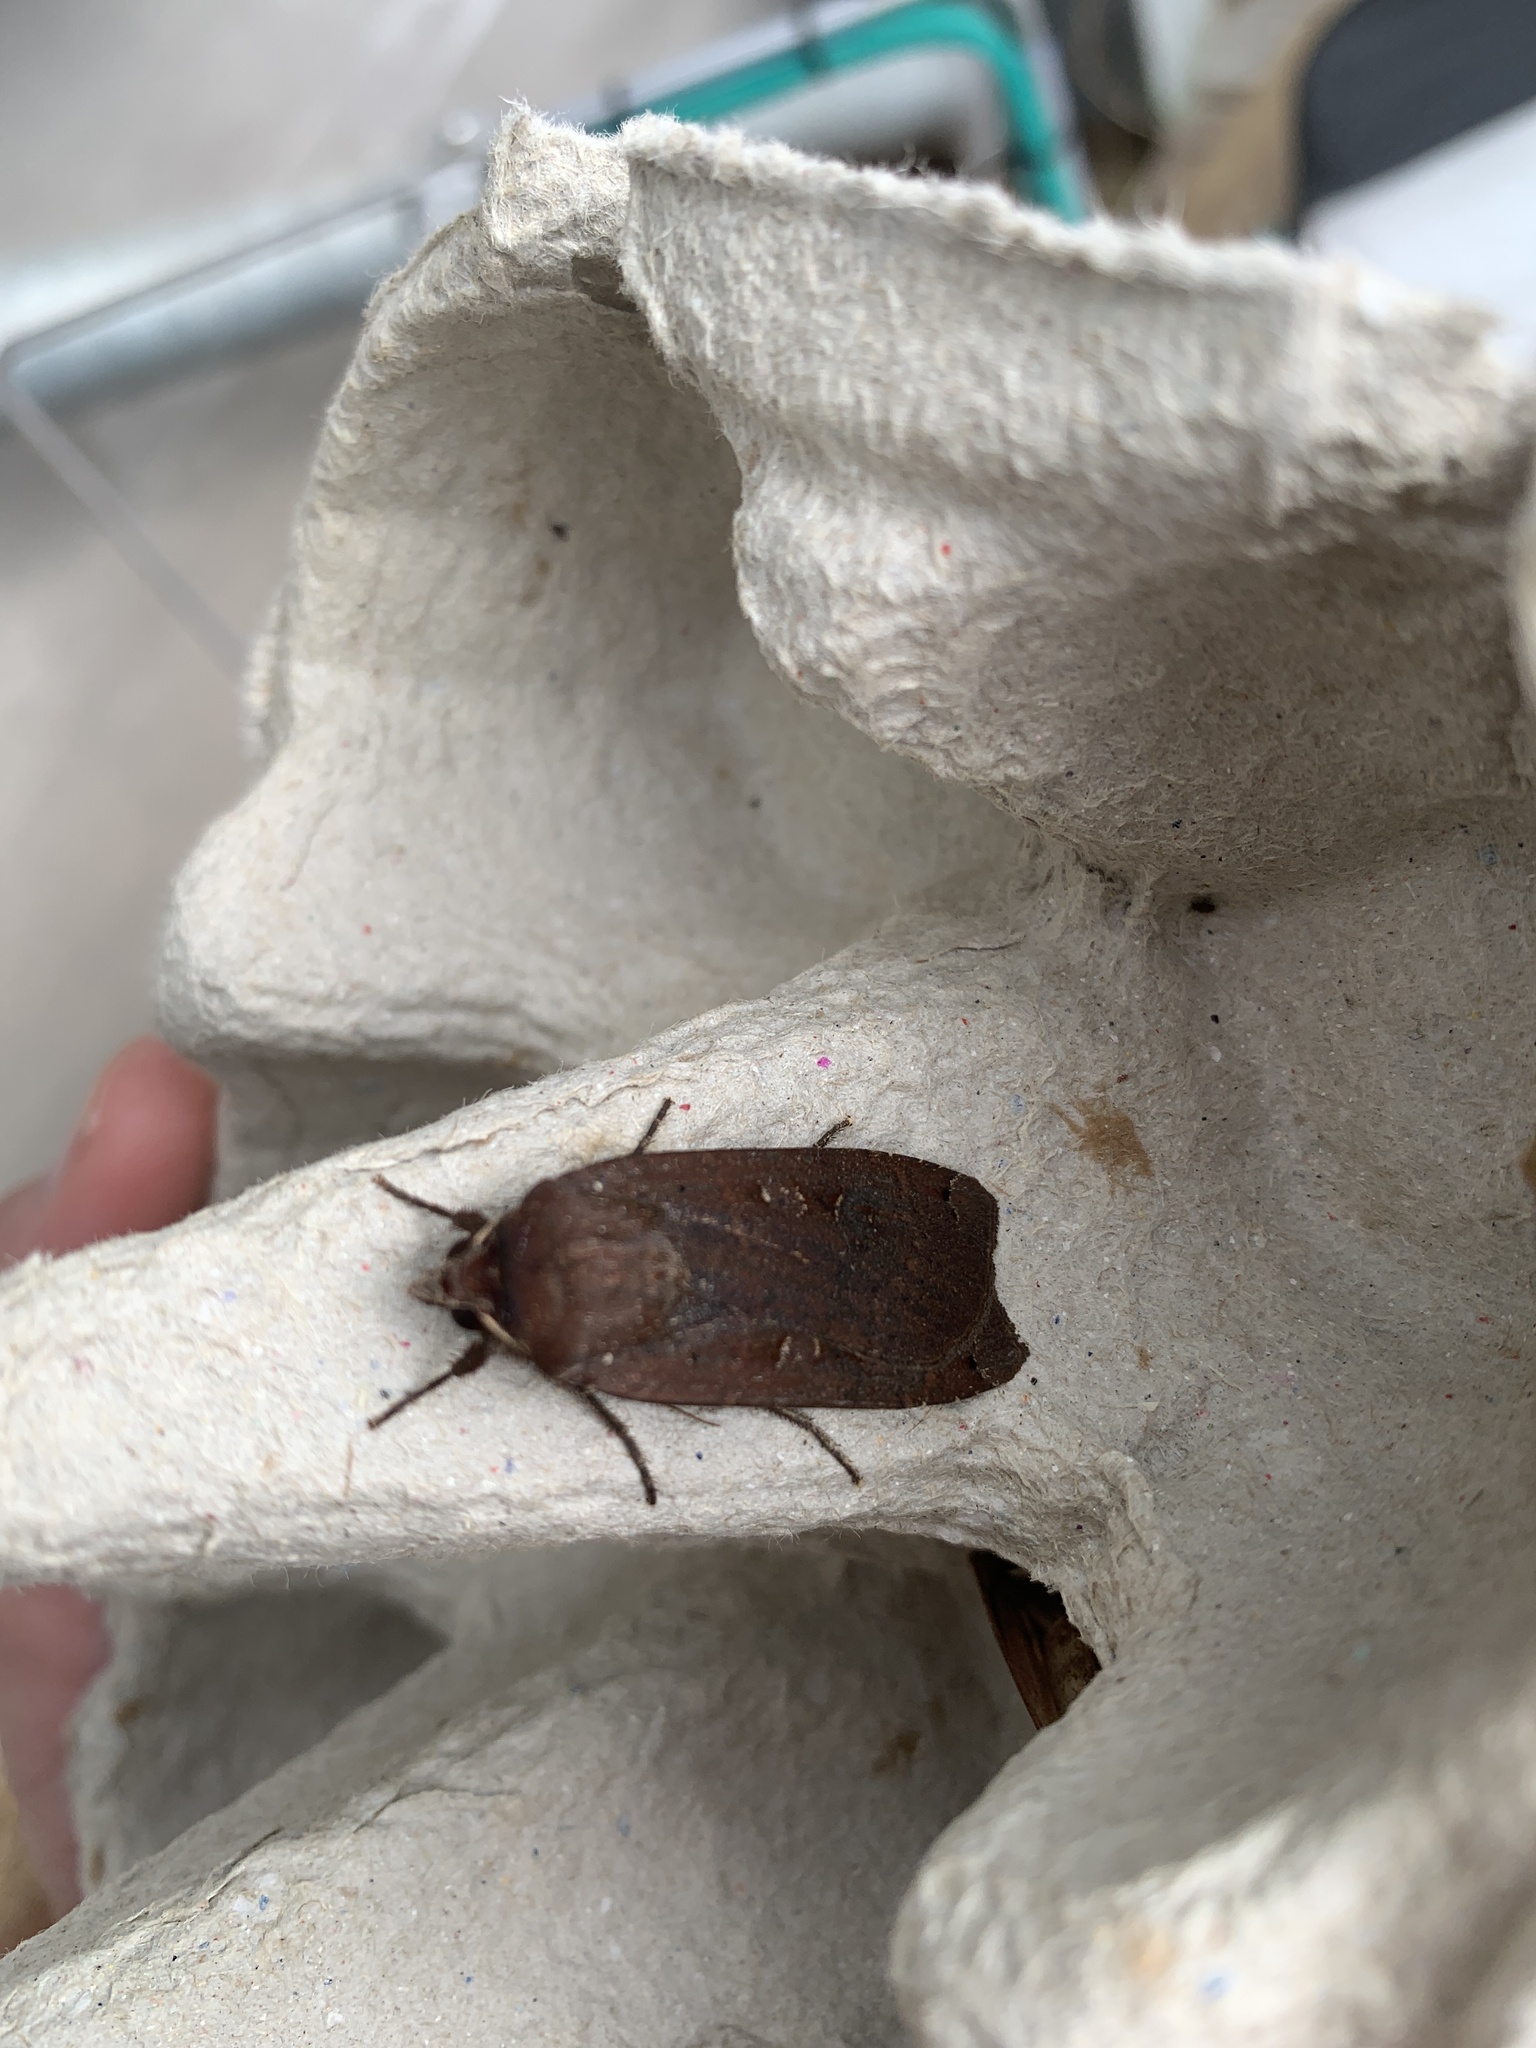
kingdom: Animalia
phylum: Arthropoda
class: Insecta
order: Lepidoptera
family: Noctuidae
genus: Noctua
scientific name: Noctua pronuba
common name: Large yellow underwing
